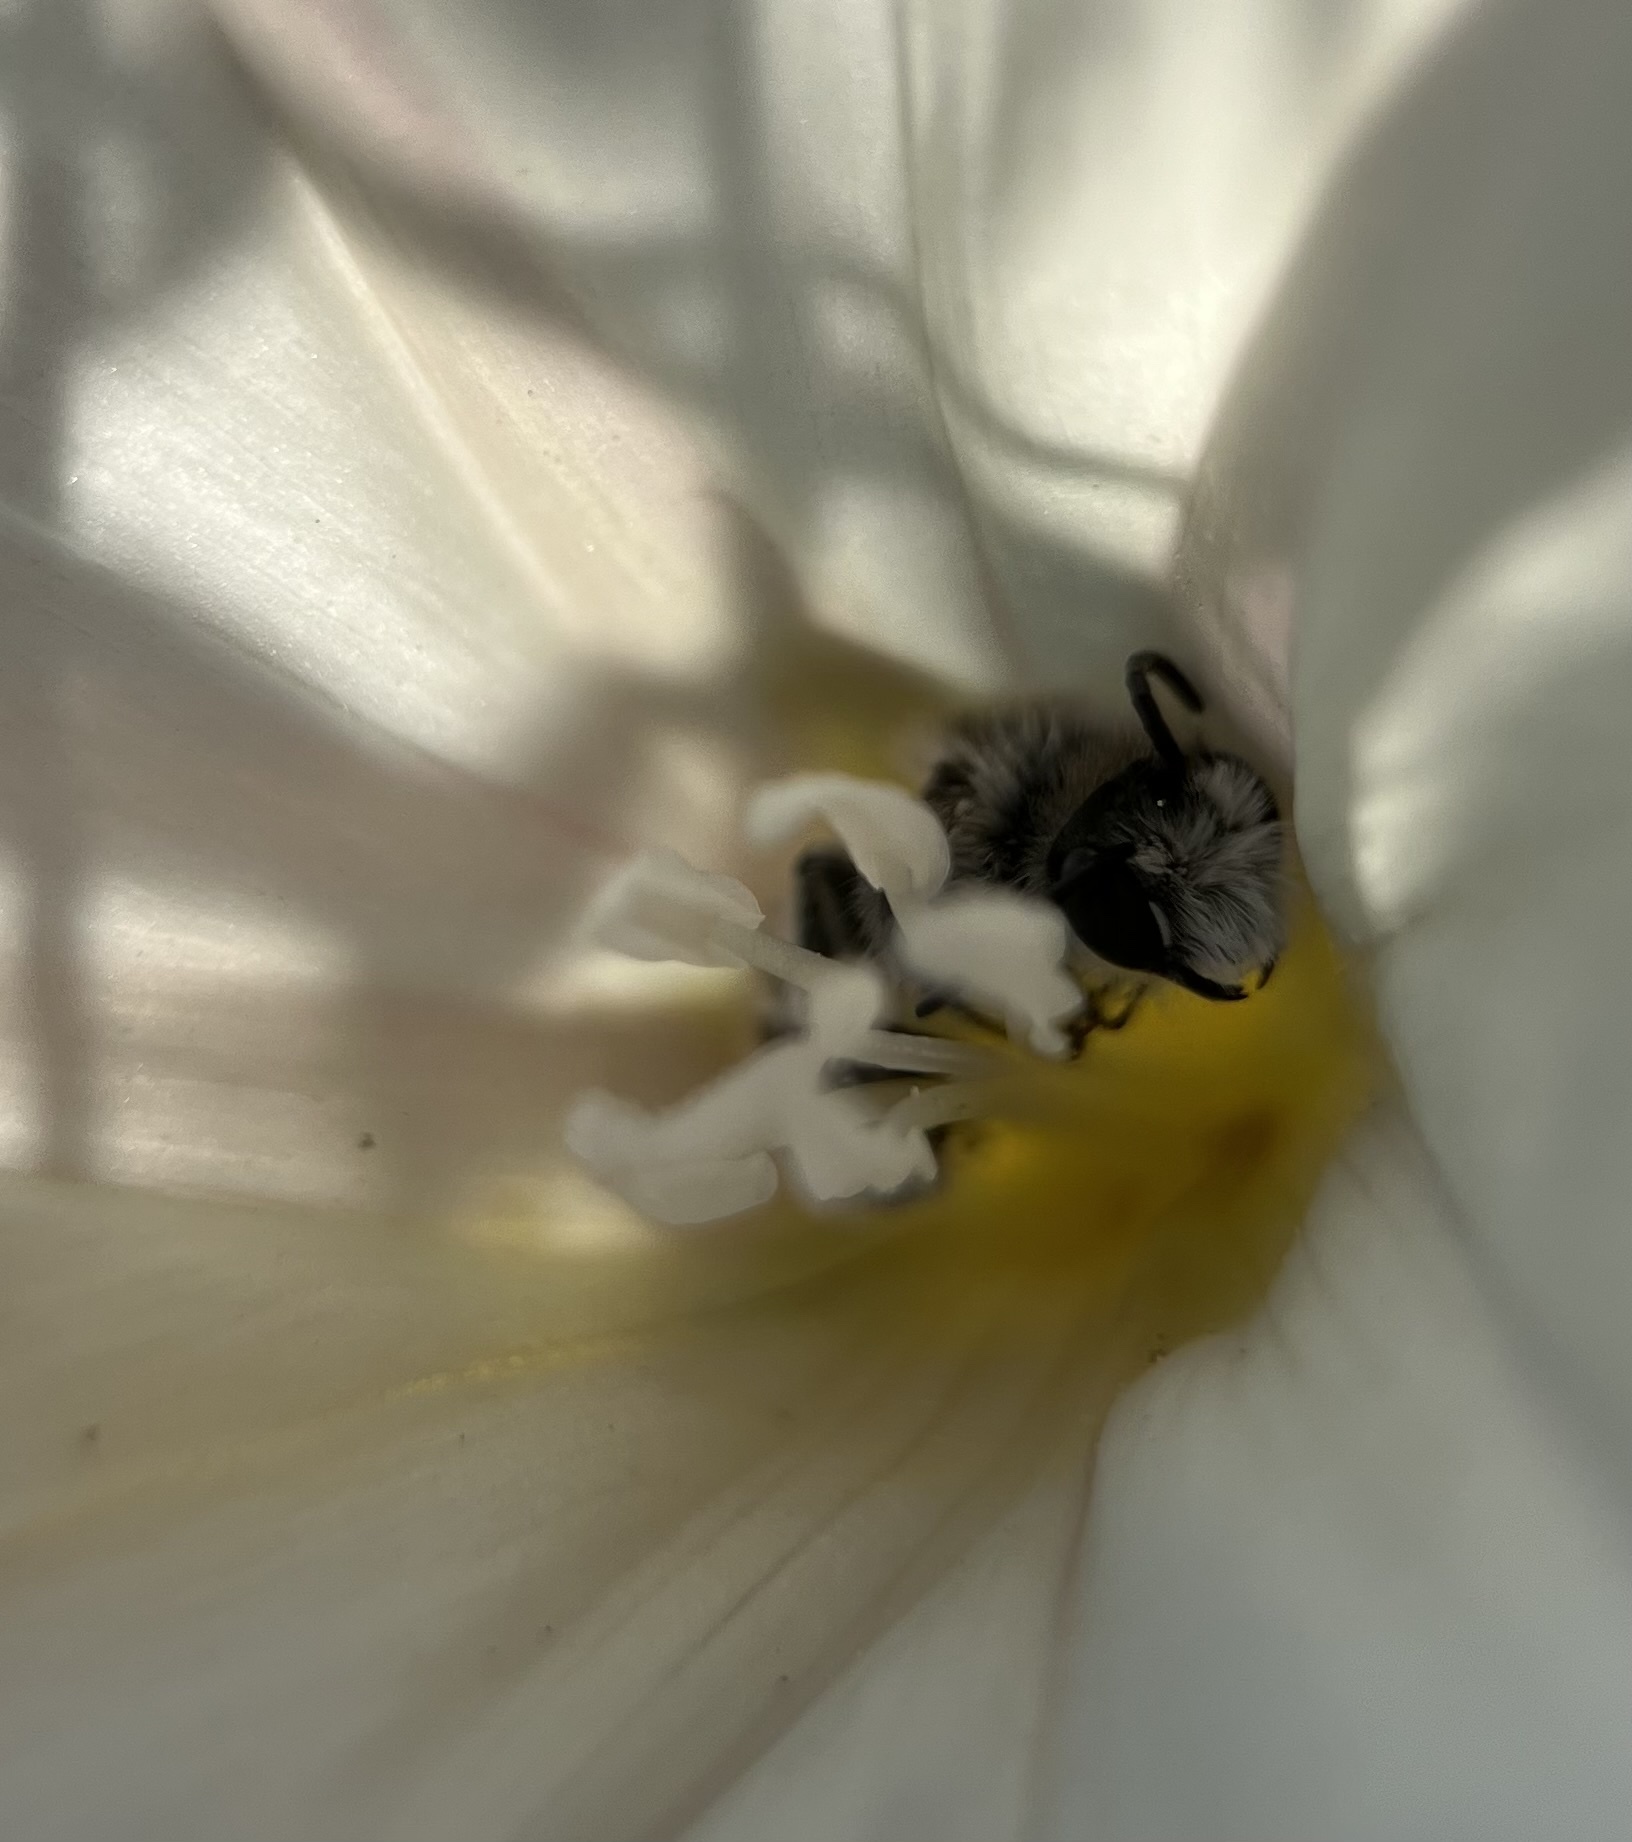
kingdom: Animalia
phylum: Arthropoda
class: Insecta
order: Hymenoptera
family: Andrenidae
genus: Ancylandrena
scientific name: Ancylandrena atoposoma
